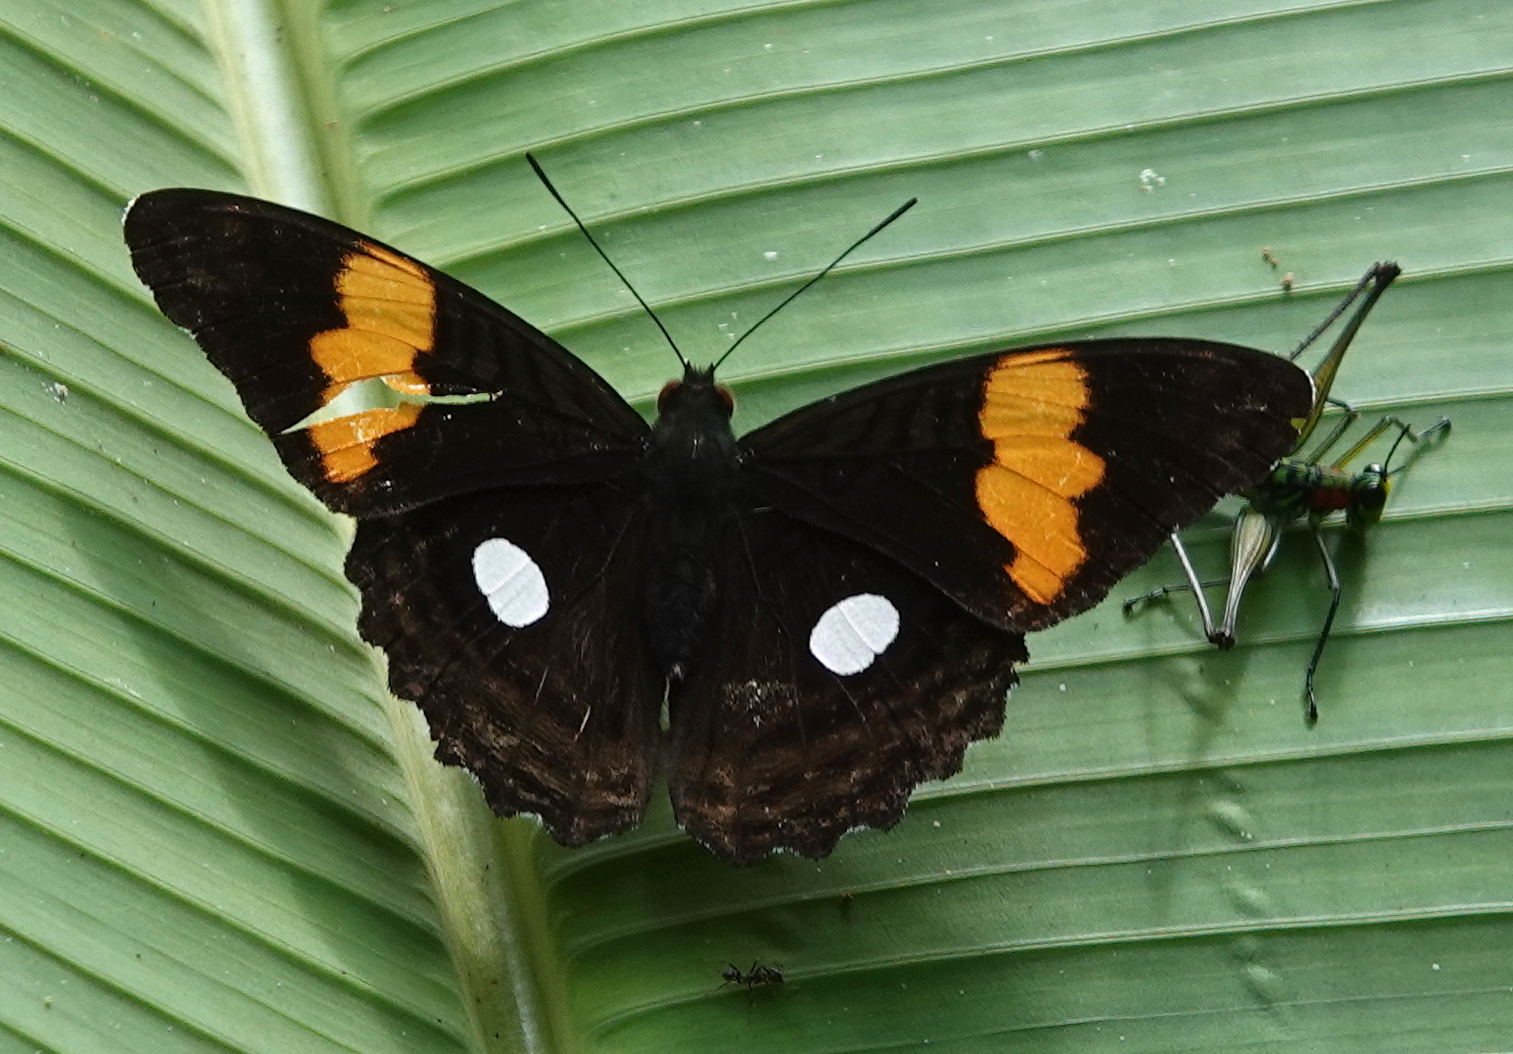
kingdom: Animalia
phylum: Arthropoda
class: Insecta
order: Lepidoptera
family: Nymphalidae
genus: Limenitis
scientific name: Limenitis leucophthalma
